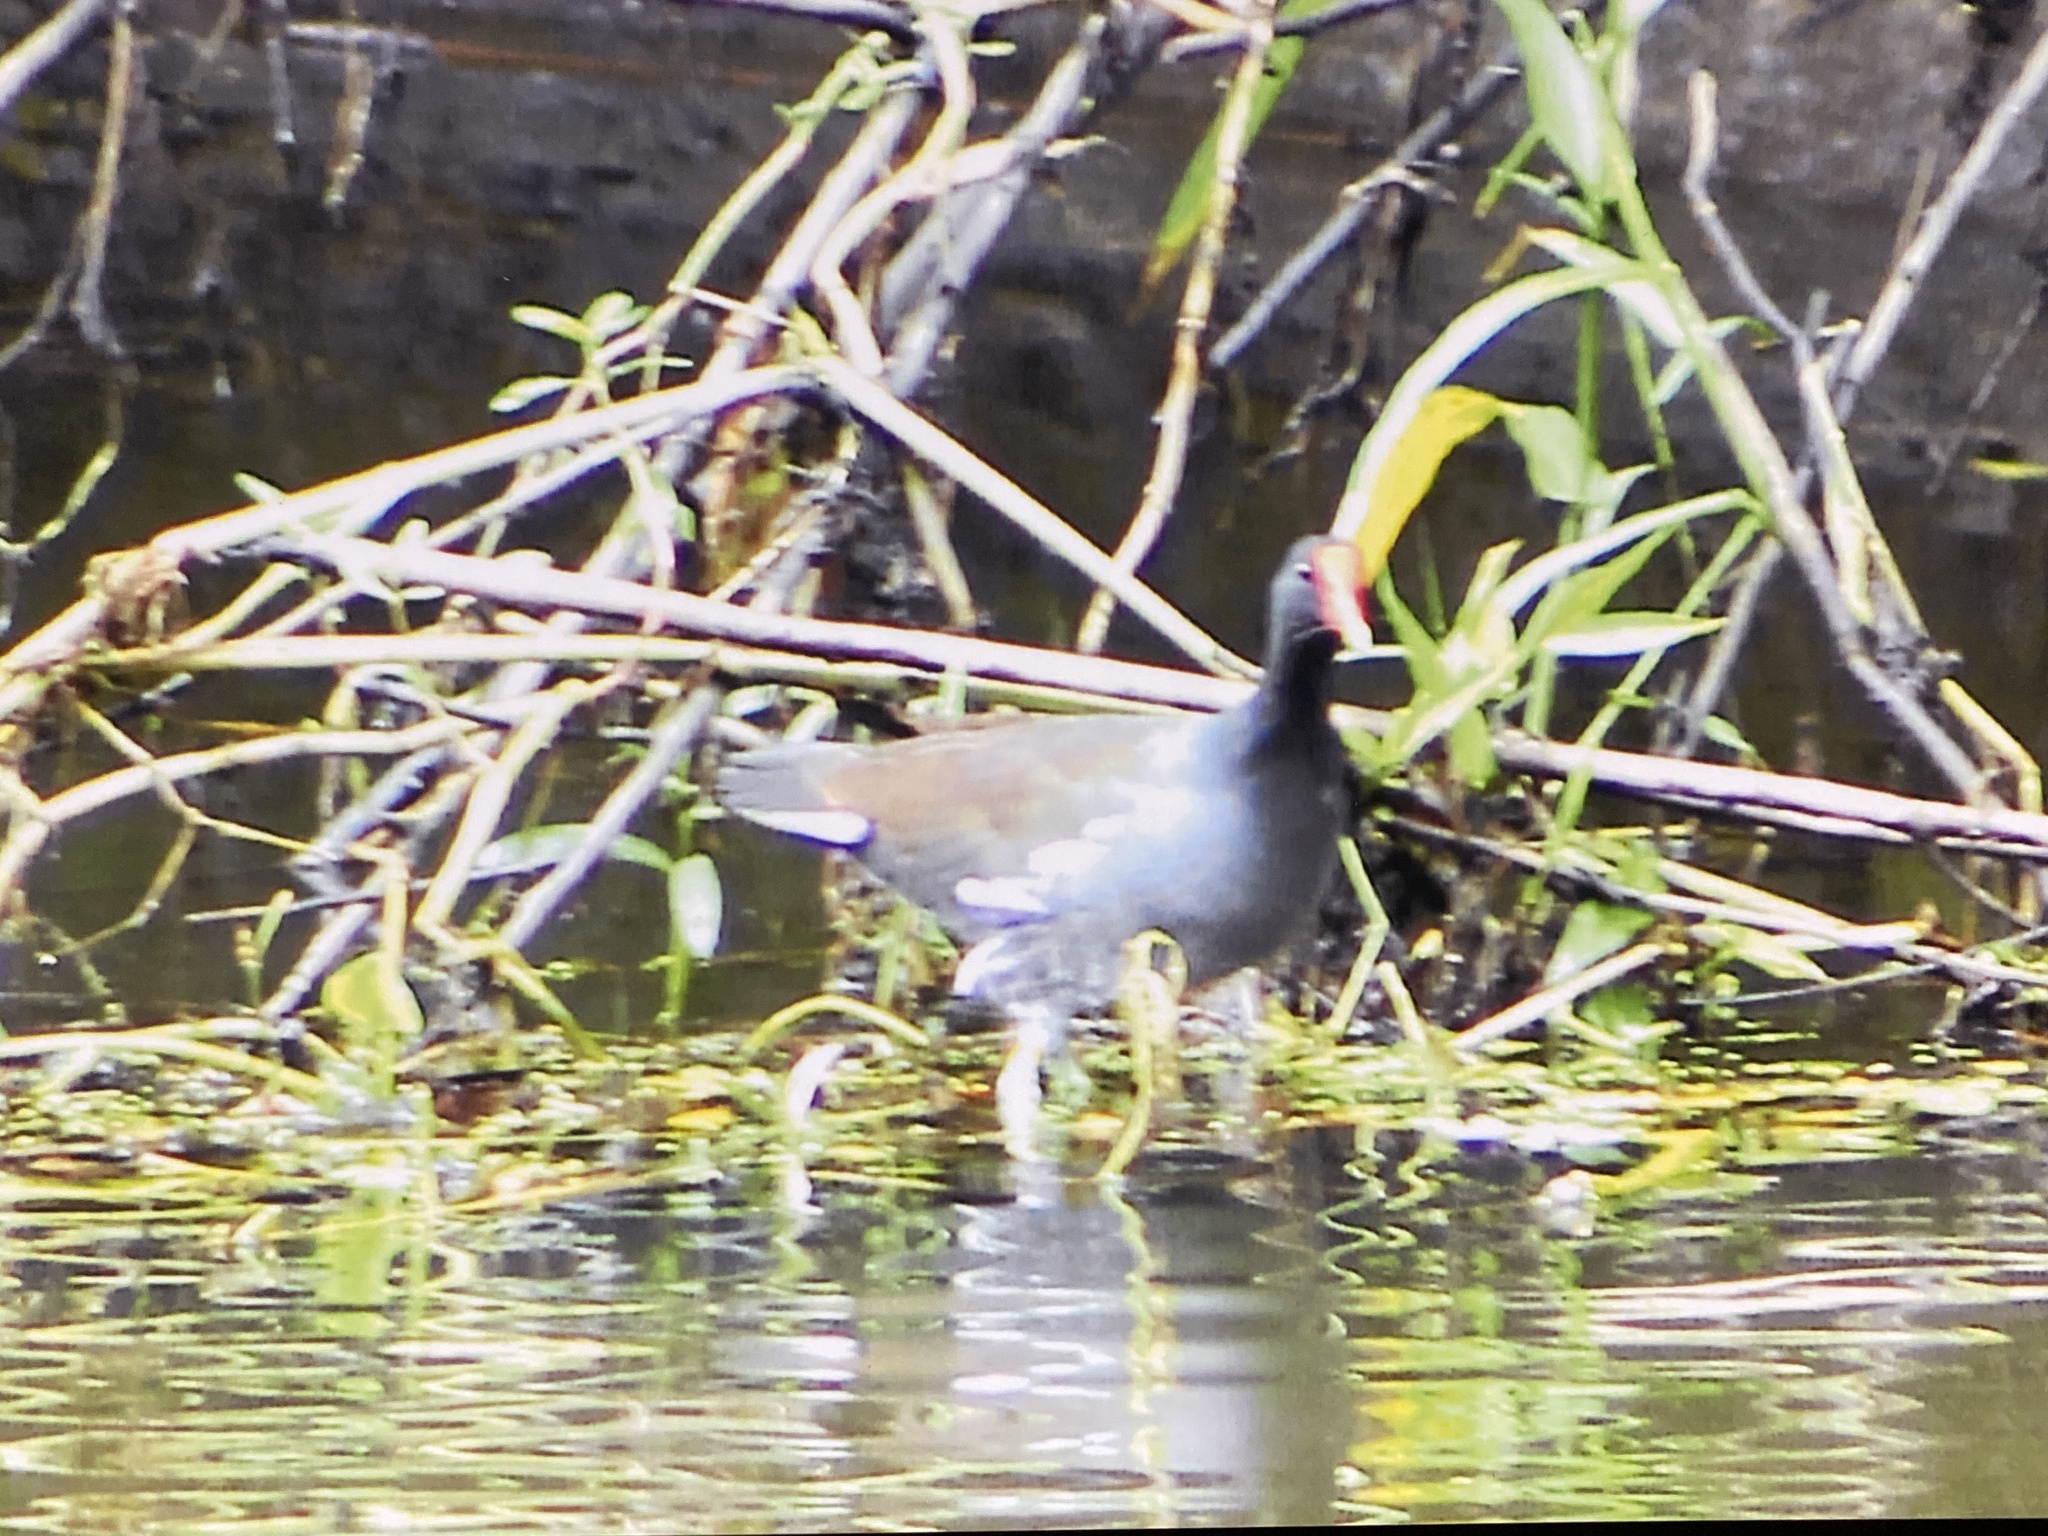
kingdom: Animalia
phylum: Chordata
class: Aves
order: Gruiformes
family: Rallidae
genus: Gallinula
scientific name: Gallinula chloropus
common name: Common moorhen
